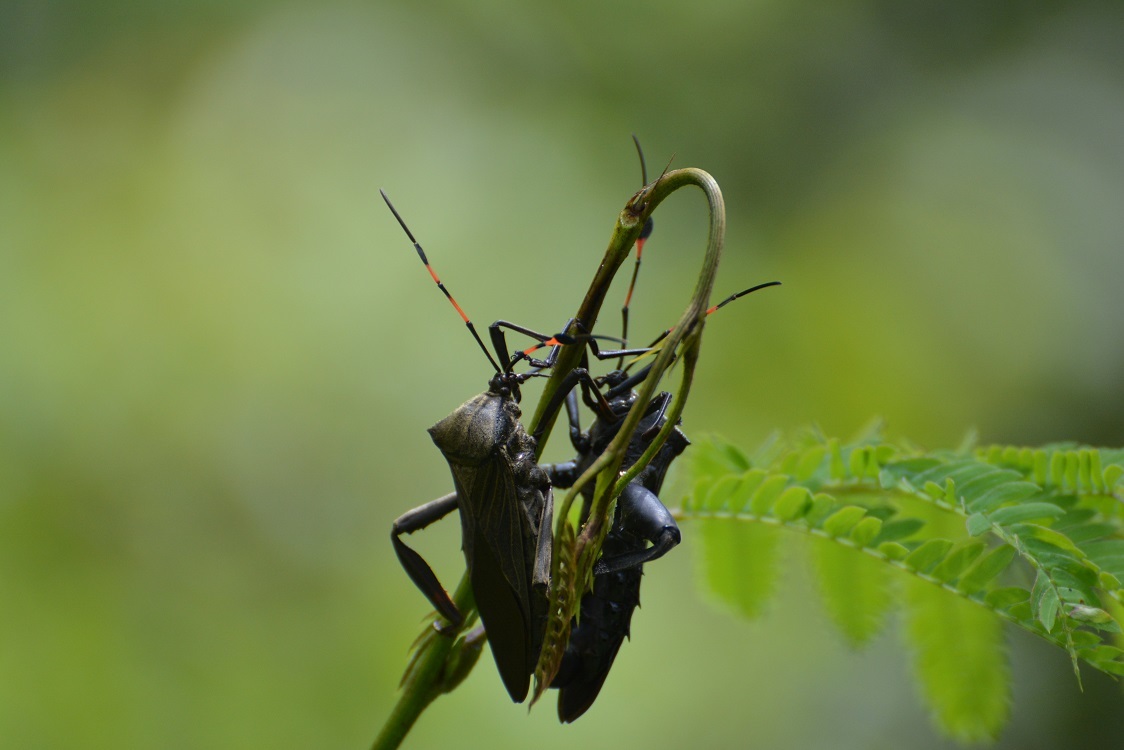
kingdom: Animalia
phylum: Arthropoda
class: Insecta
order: Hemiptera
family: Coreidae
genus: Thasus
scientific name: Thasus acutangulus
